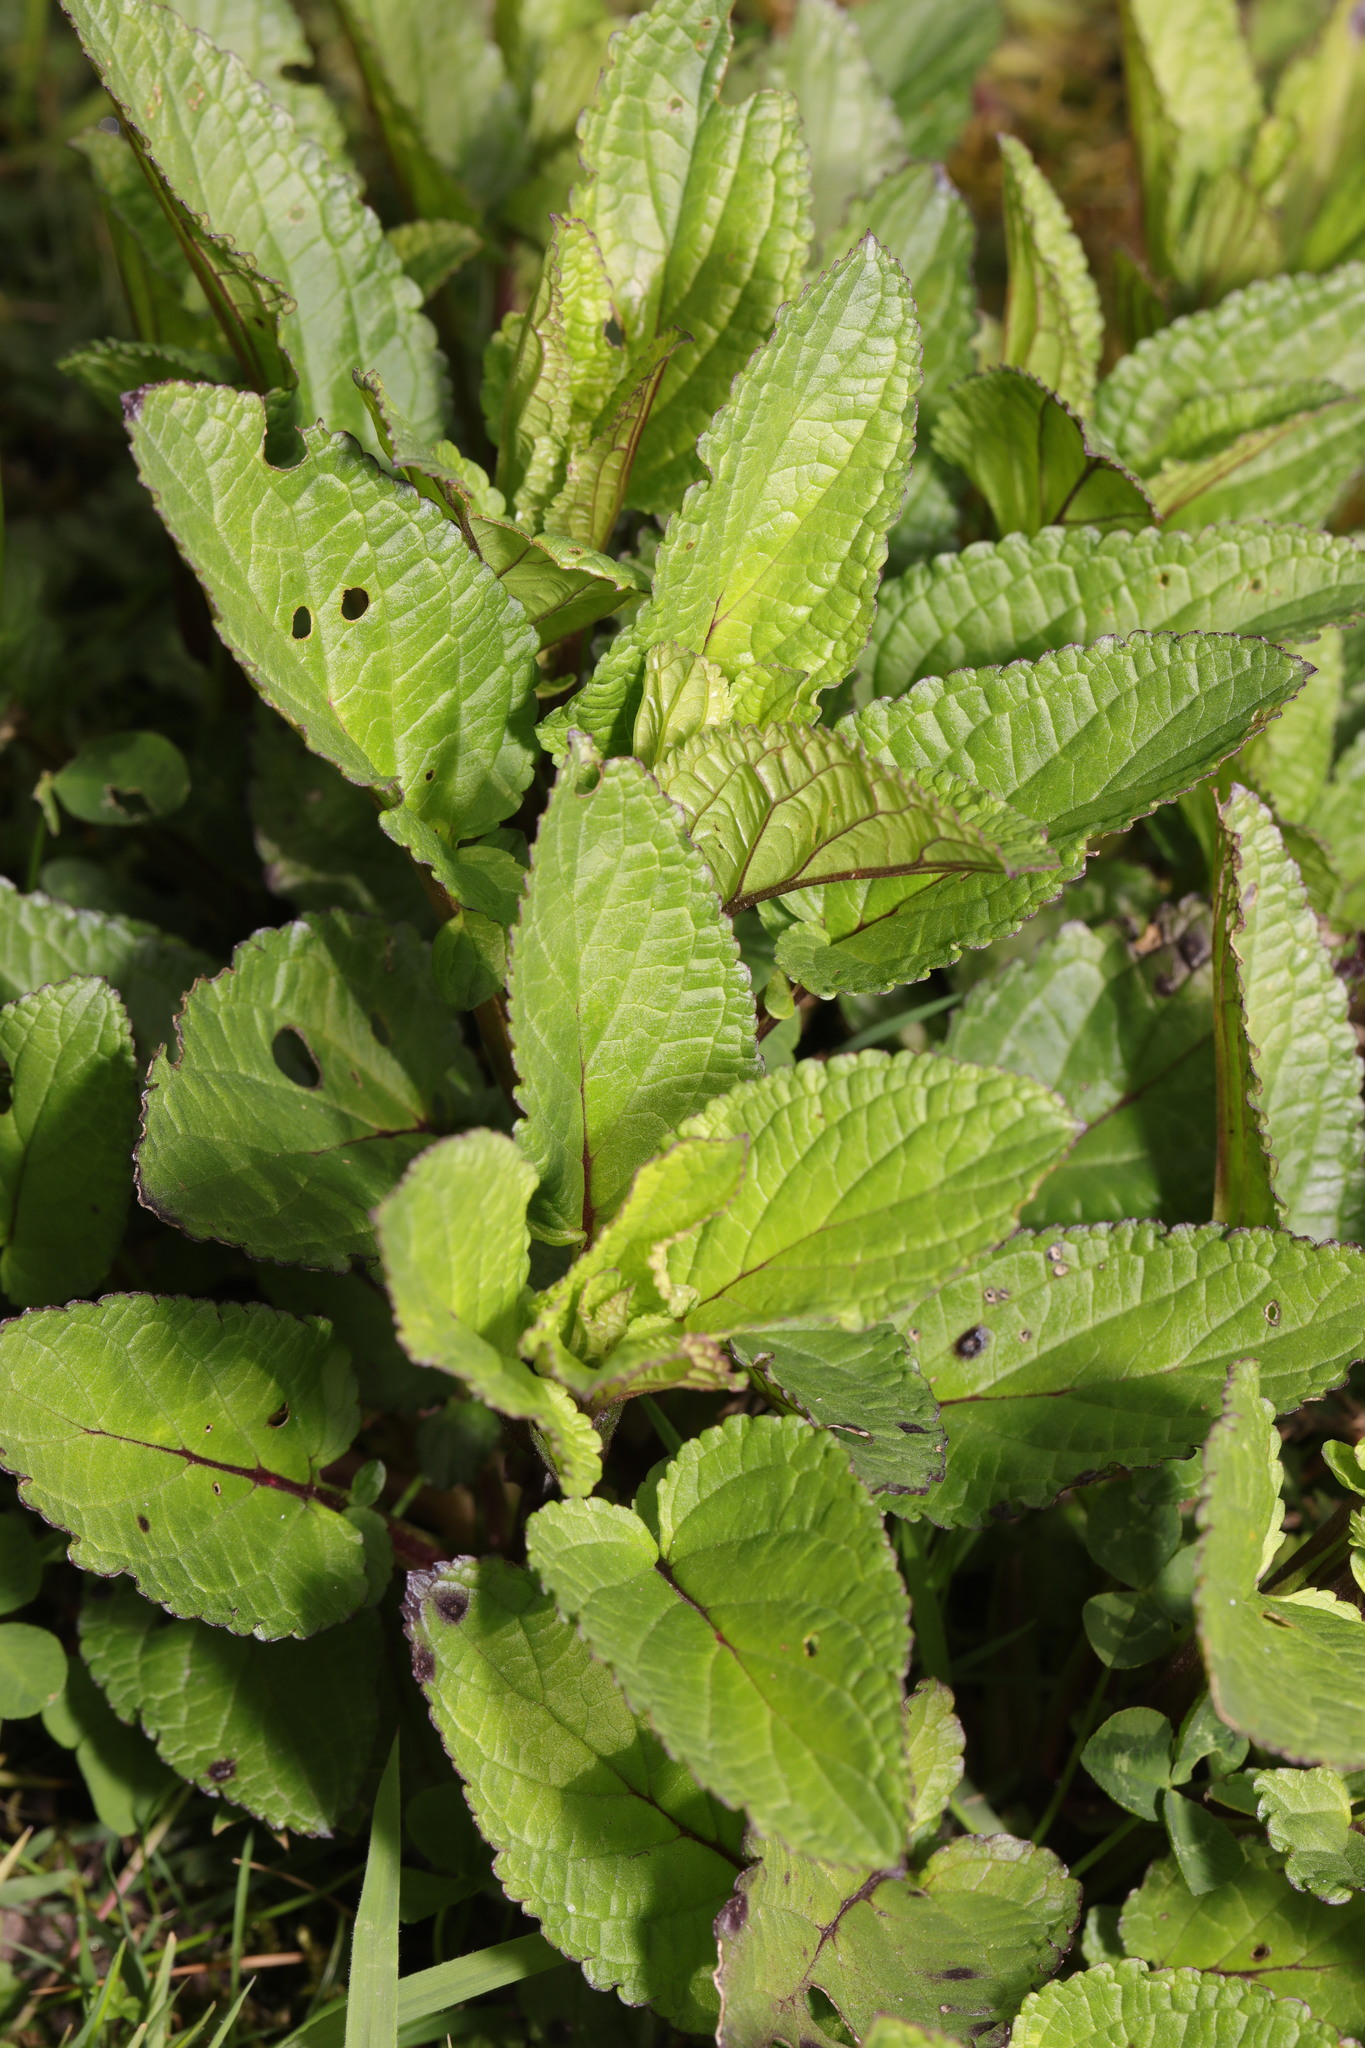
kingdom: Plantae
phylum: Tracheophyta
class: Magnoliopsida
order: Lamiales
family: Scrophulariaceae
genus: Scrophularia
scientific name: Scrophularia auriculata
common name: Water betony
